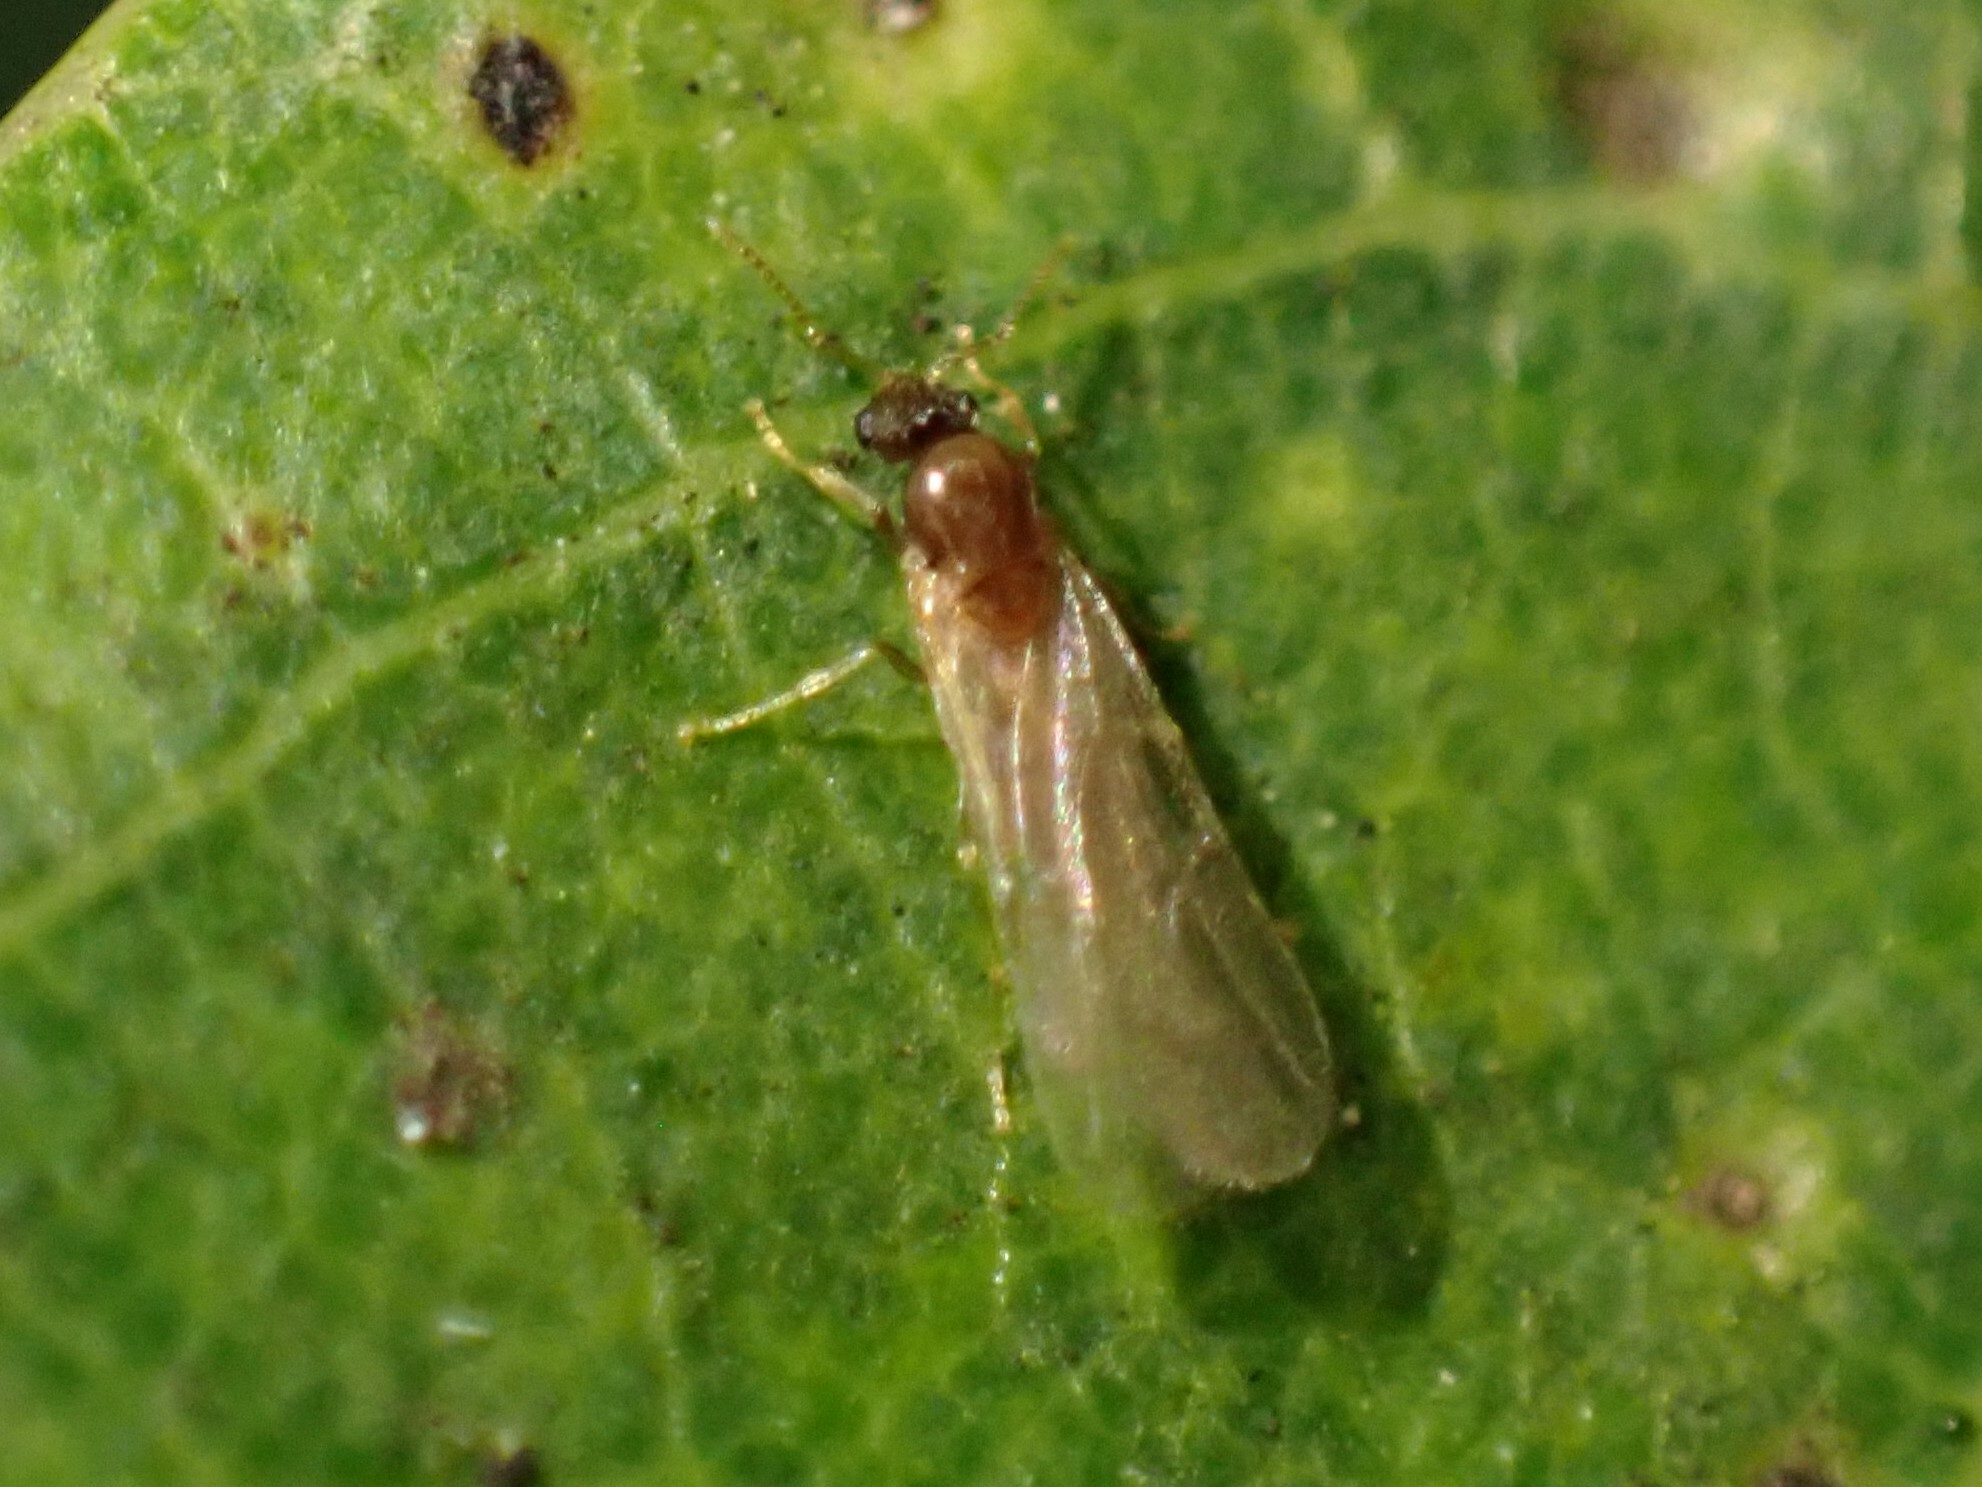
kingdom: Animalia
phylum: Arthropoda
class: Insecta
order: Hymenoptera
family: Formicidae
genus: Brachymyrmex
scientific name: Brachymyrmex depilis
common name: Hairless rover ant
